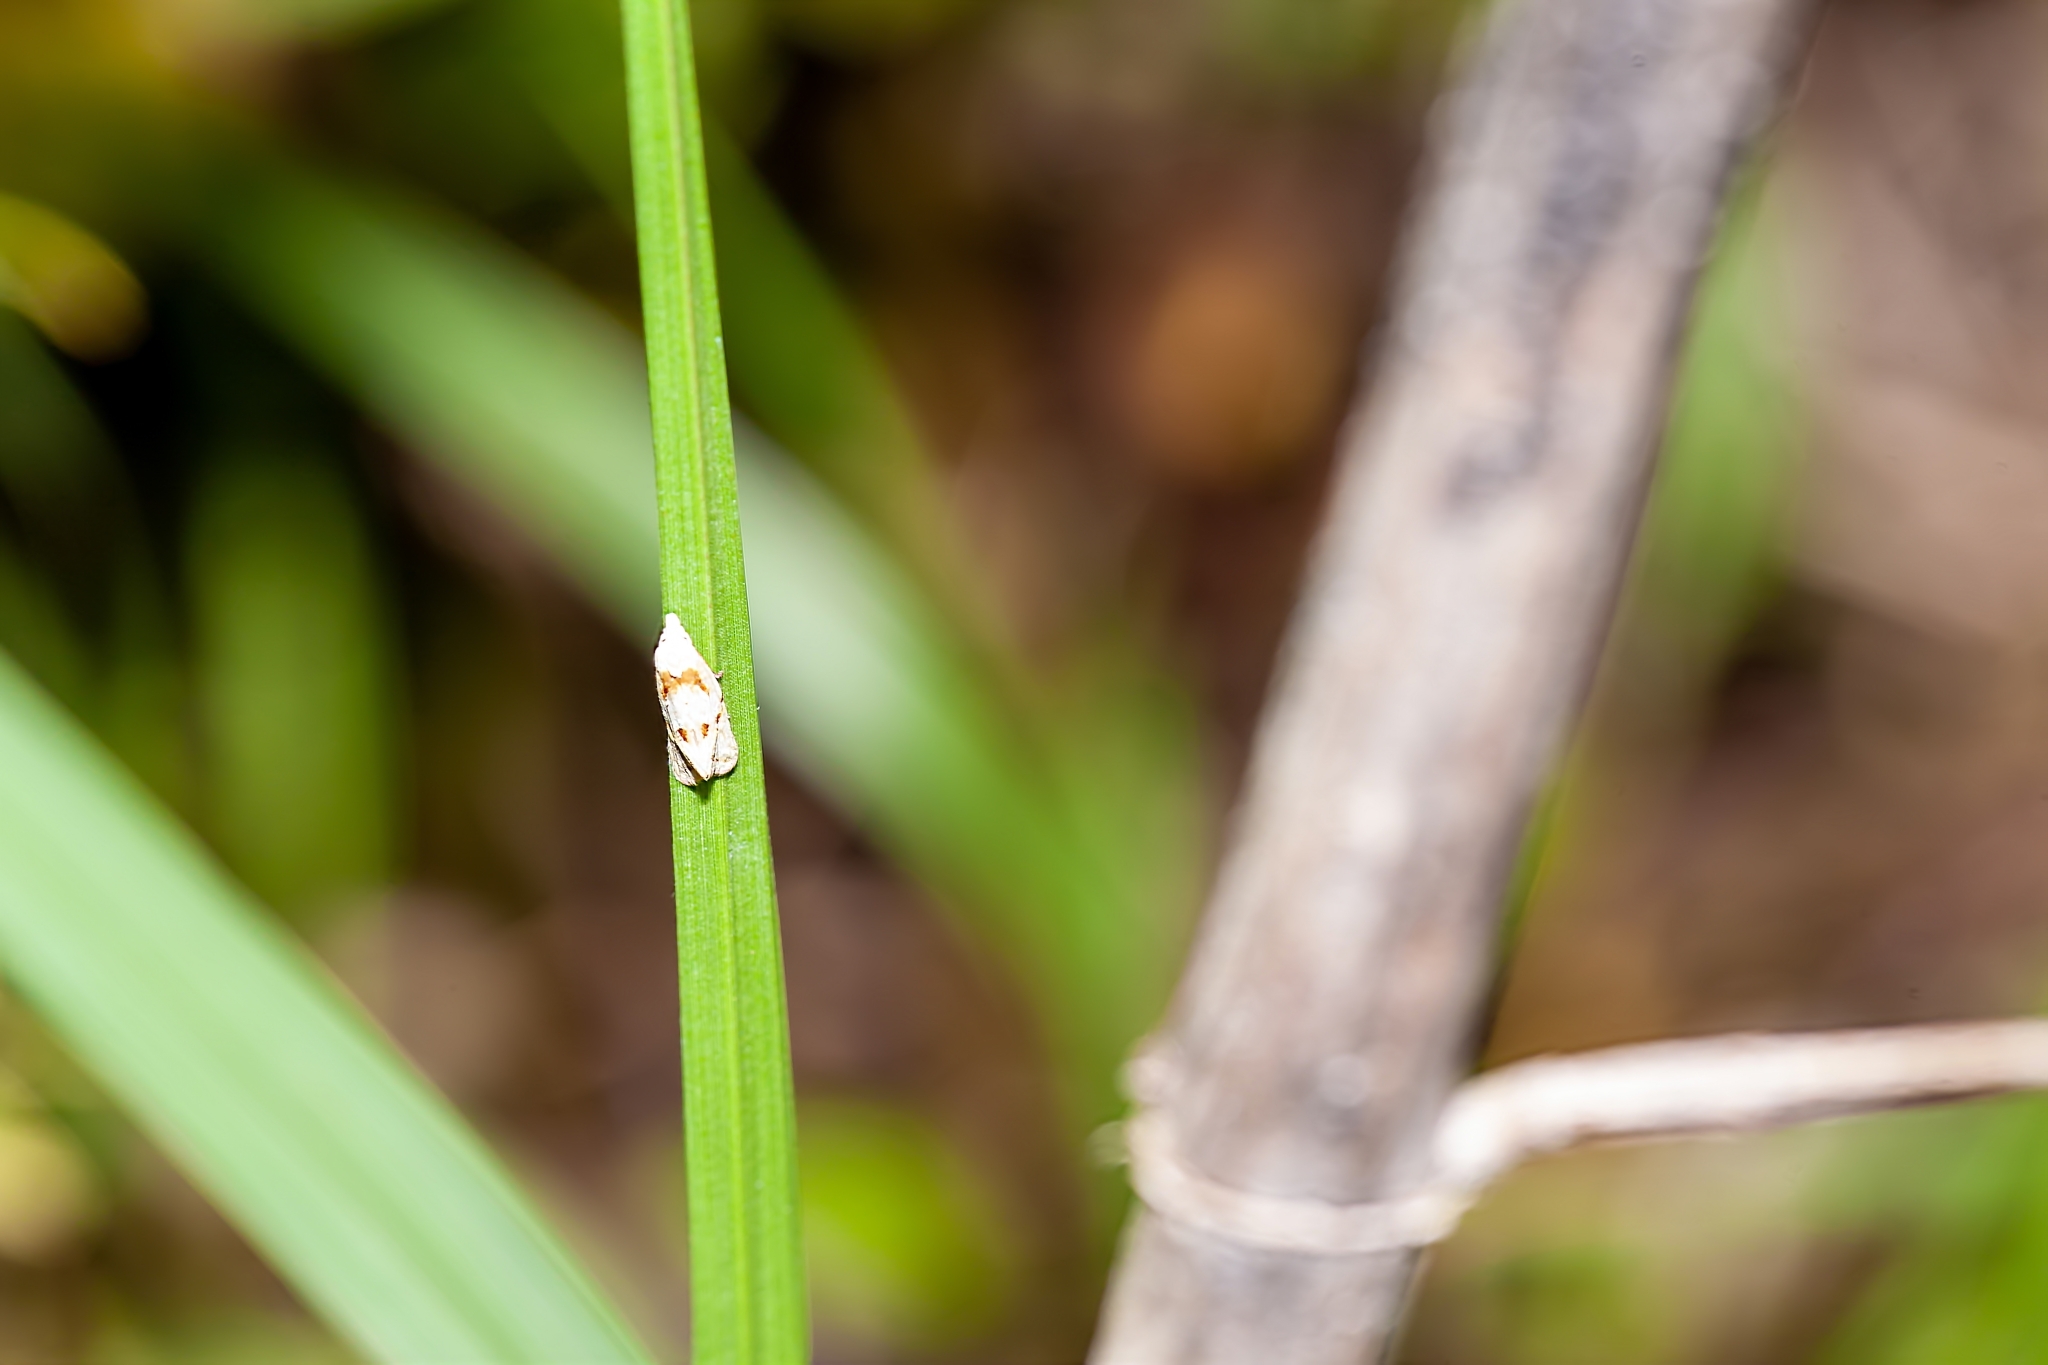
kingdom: Animalia
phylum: Arthropoda
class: Insecta
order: Lepidoptera
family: Tortricidae
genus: Aethes
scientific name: Aethes seriatana
